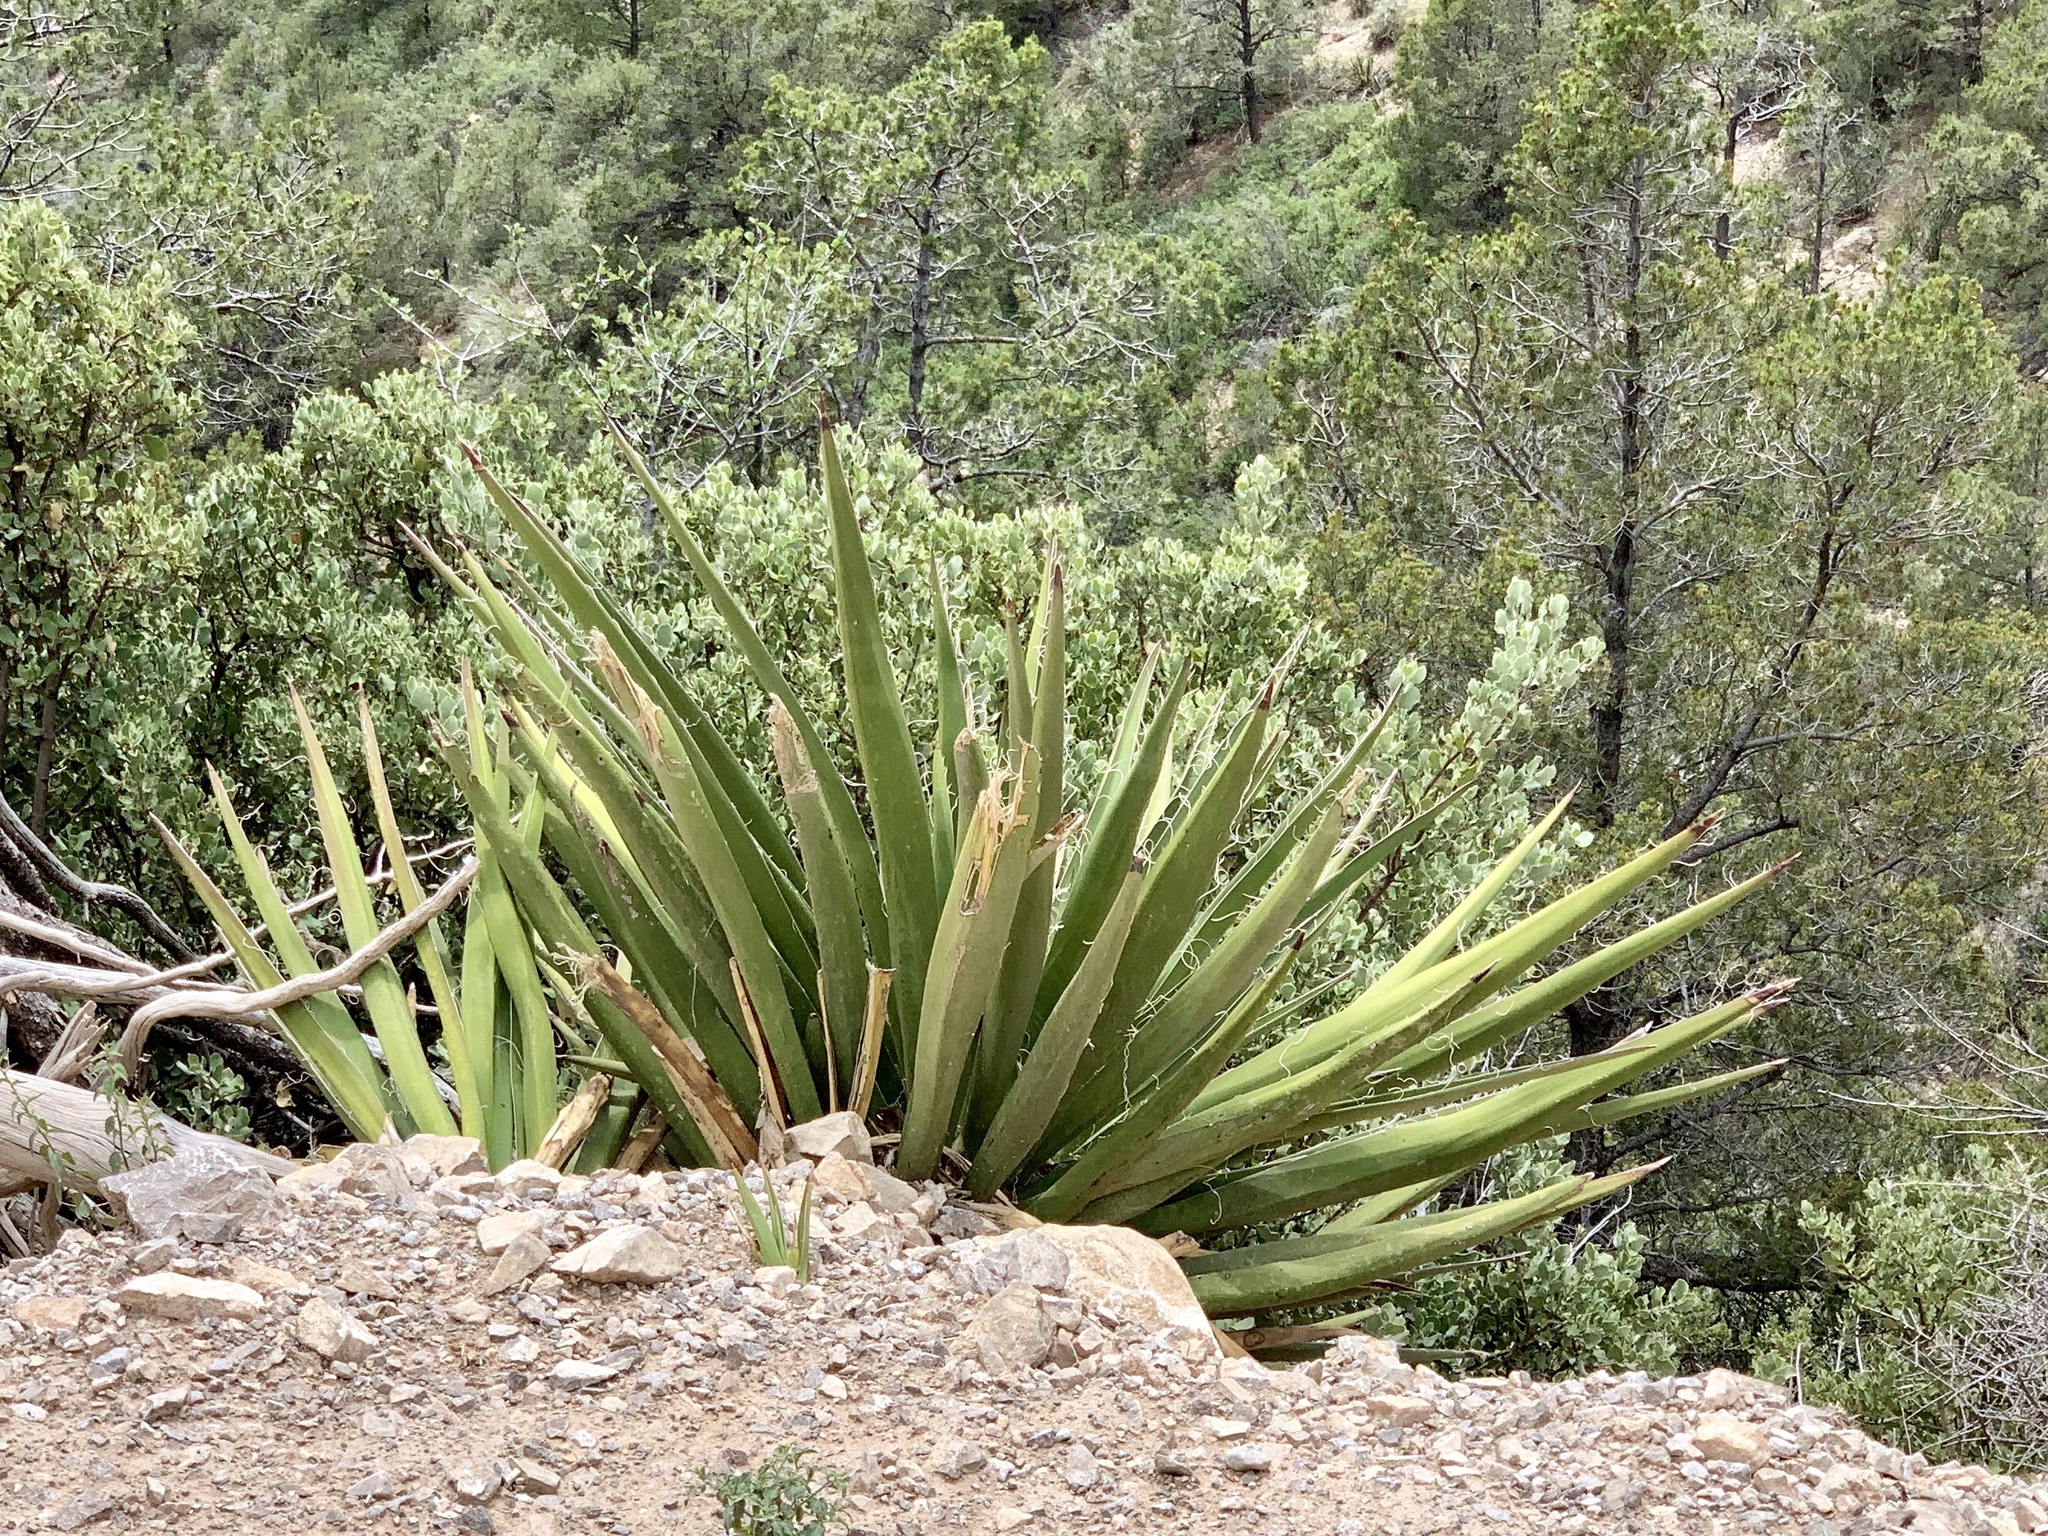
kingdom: Plantae
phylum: Tracheophyta
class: Liliopsida
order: Asparagales
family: Asparagaceae
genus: Yucca
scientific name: Yucca baccata
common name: Banana yucca
